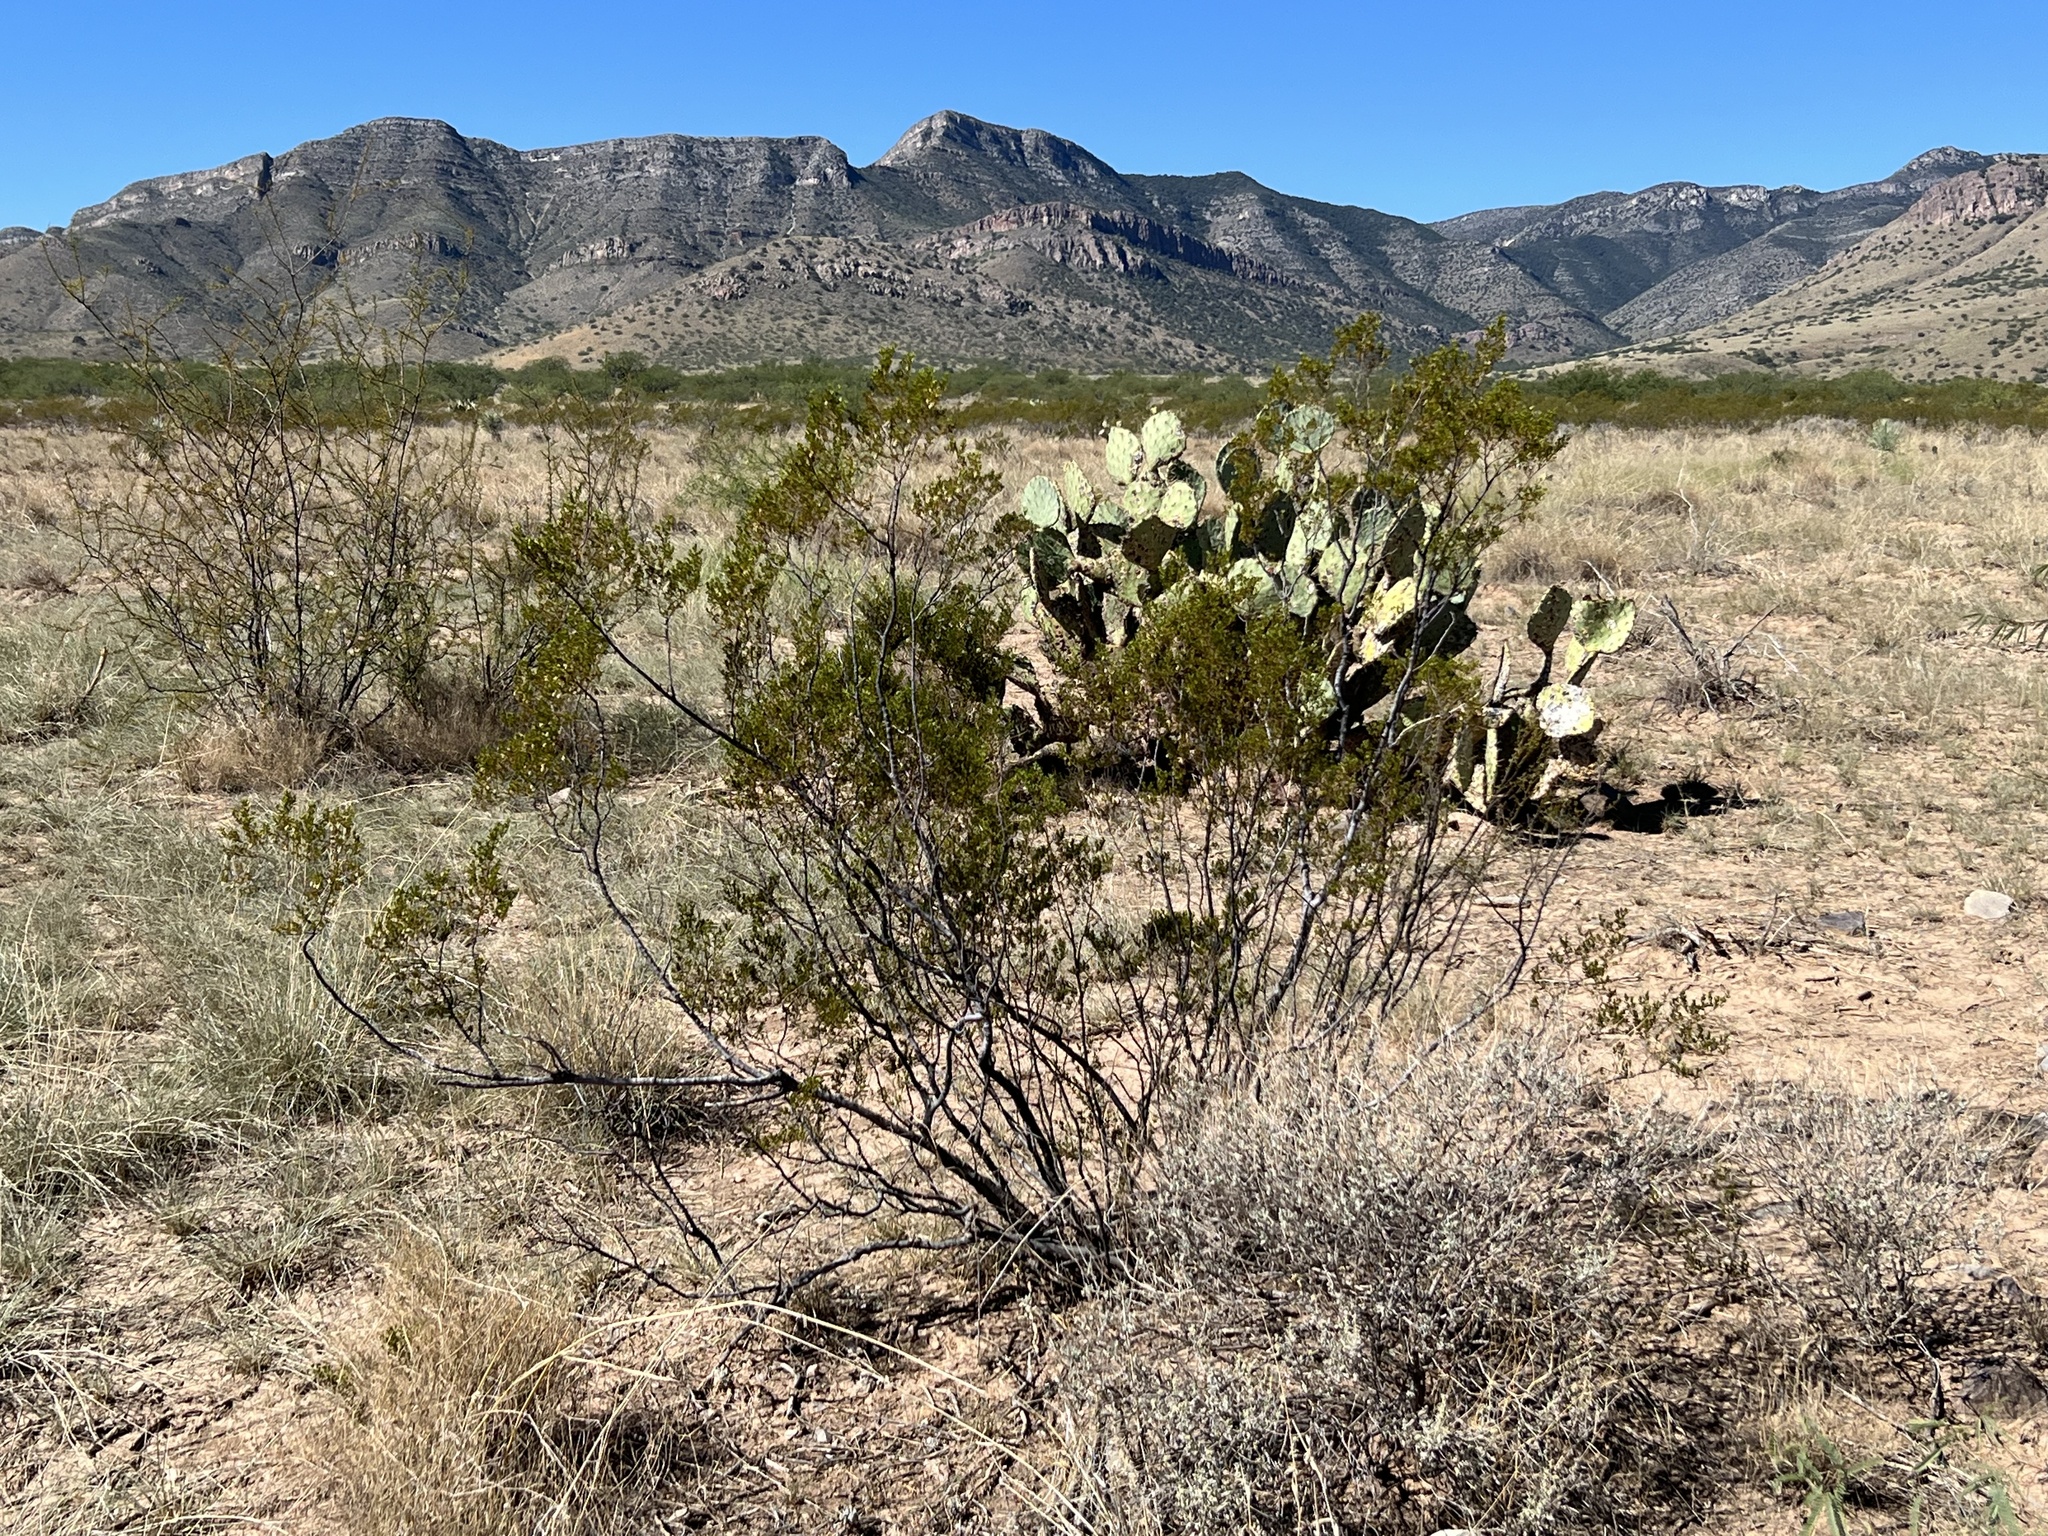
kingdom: Plantae
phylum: Tracheophyta
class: Magnoliopsida
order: Zygophyllales
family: Zygophyllaceae
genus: Larrea
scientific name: Larrea tridentata
